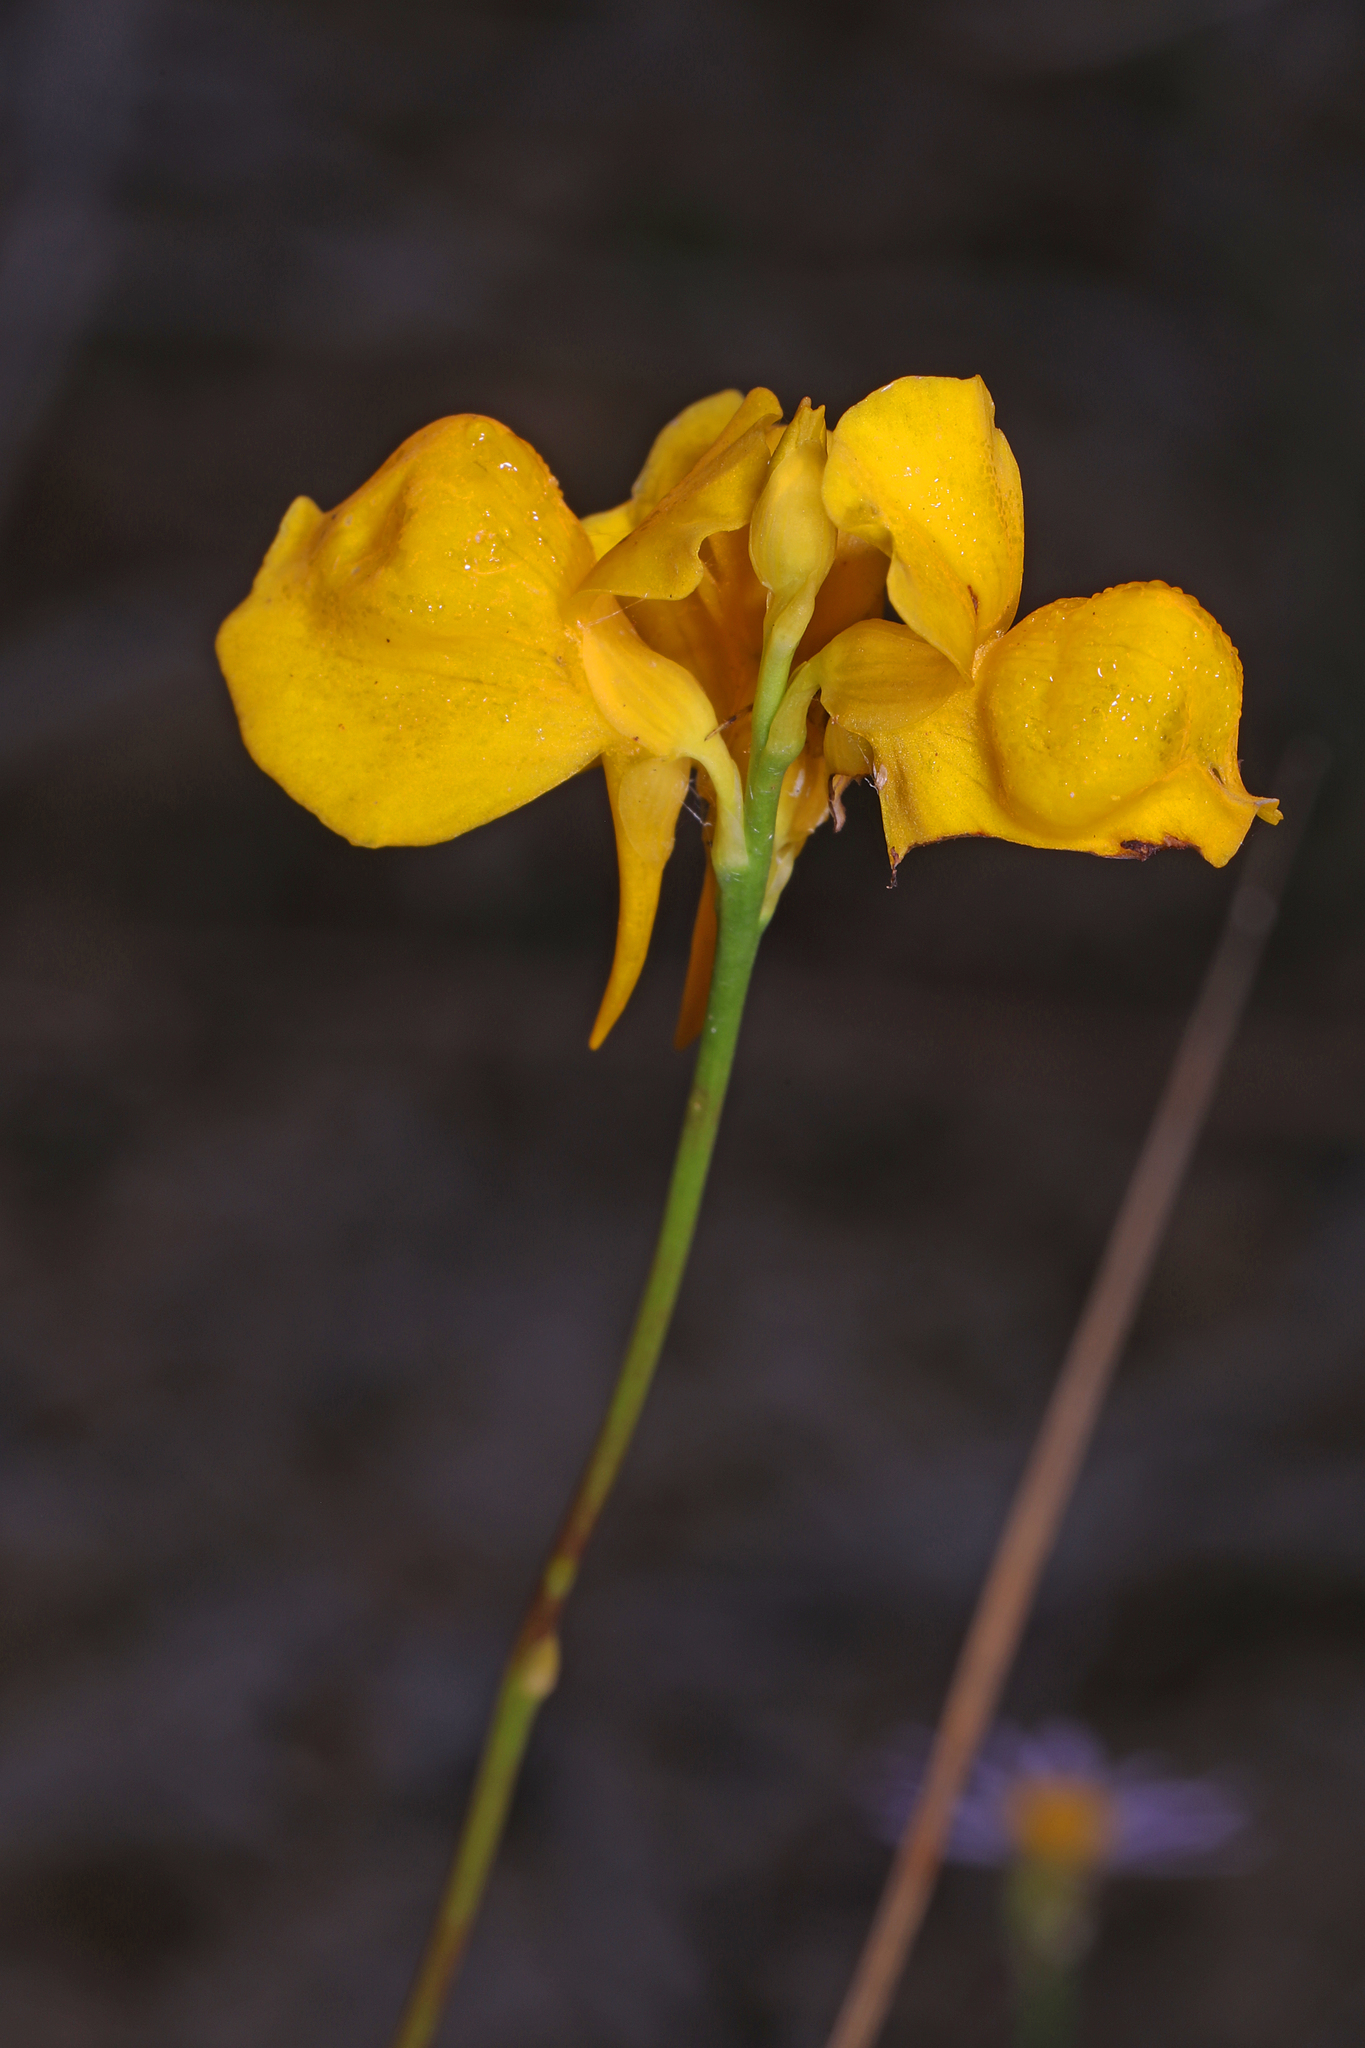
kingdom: Plantae
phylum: Tracheophyta
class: Magnoliopsida
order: Lamiales
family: Lentibulariaceae
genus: Utricularia
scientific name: Utricularia cornuta
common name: Horned bladderwort
